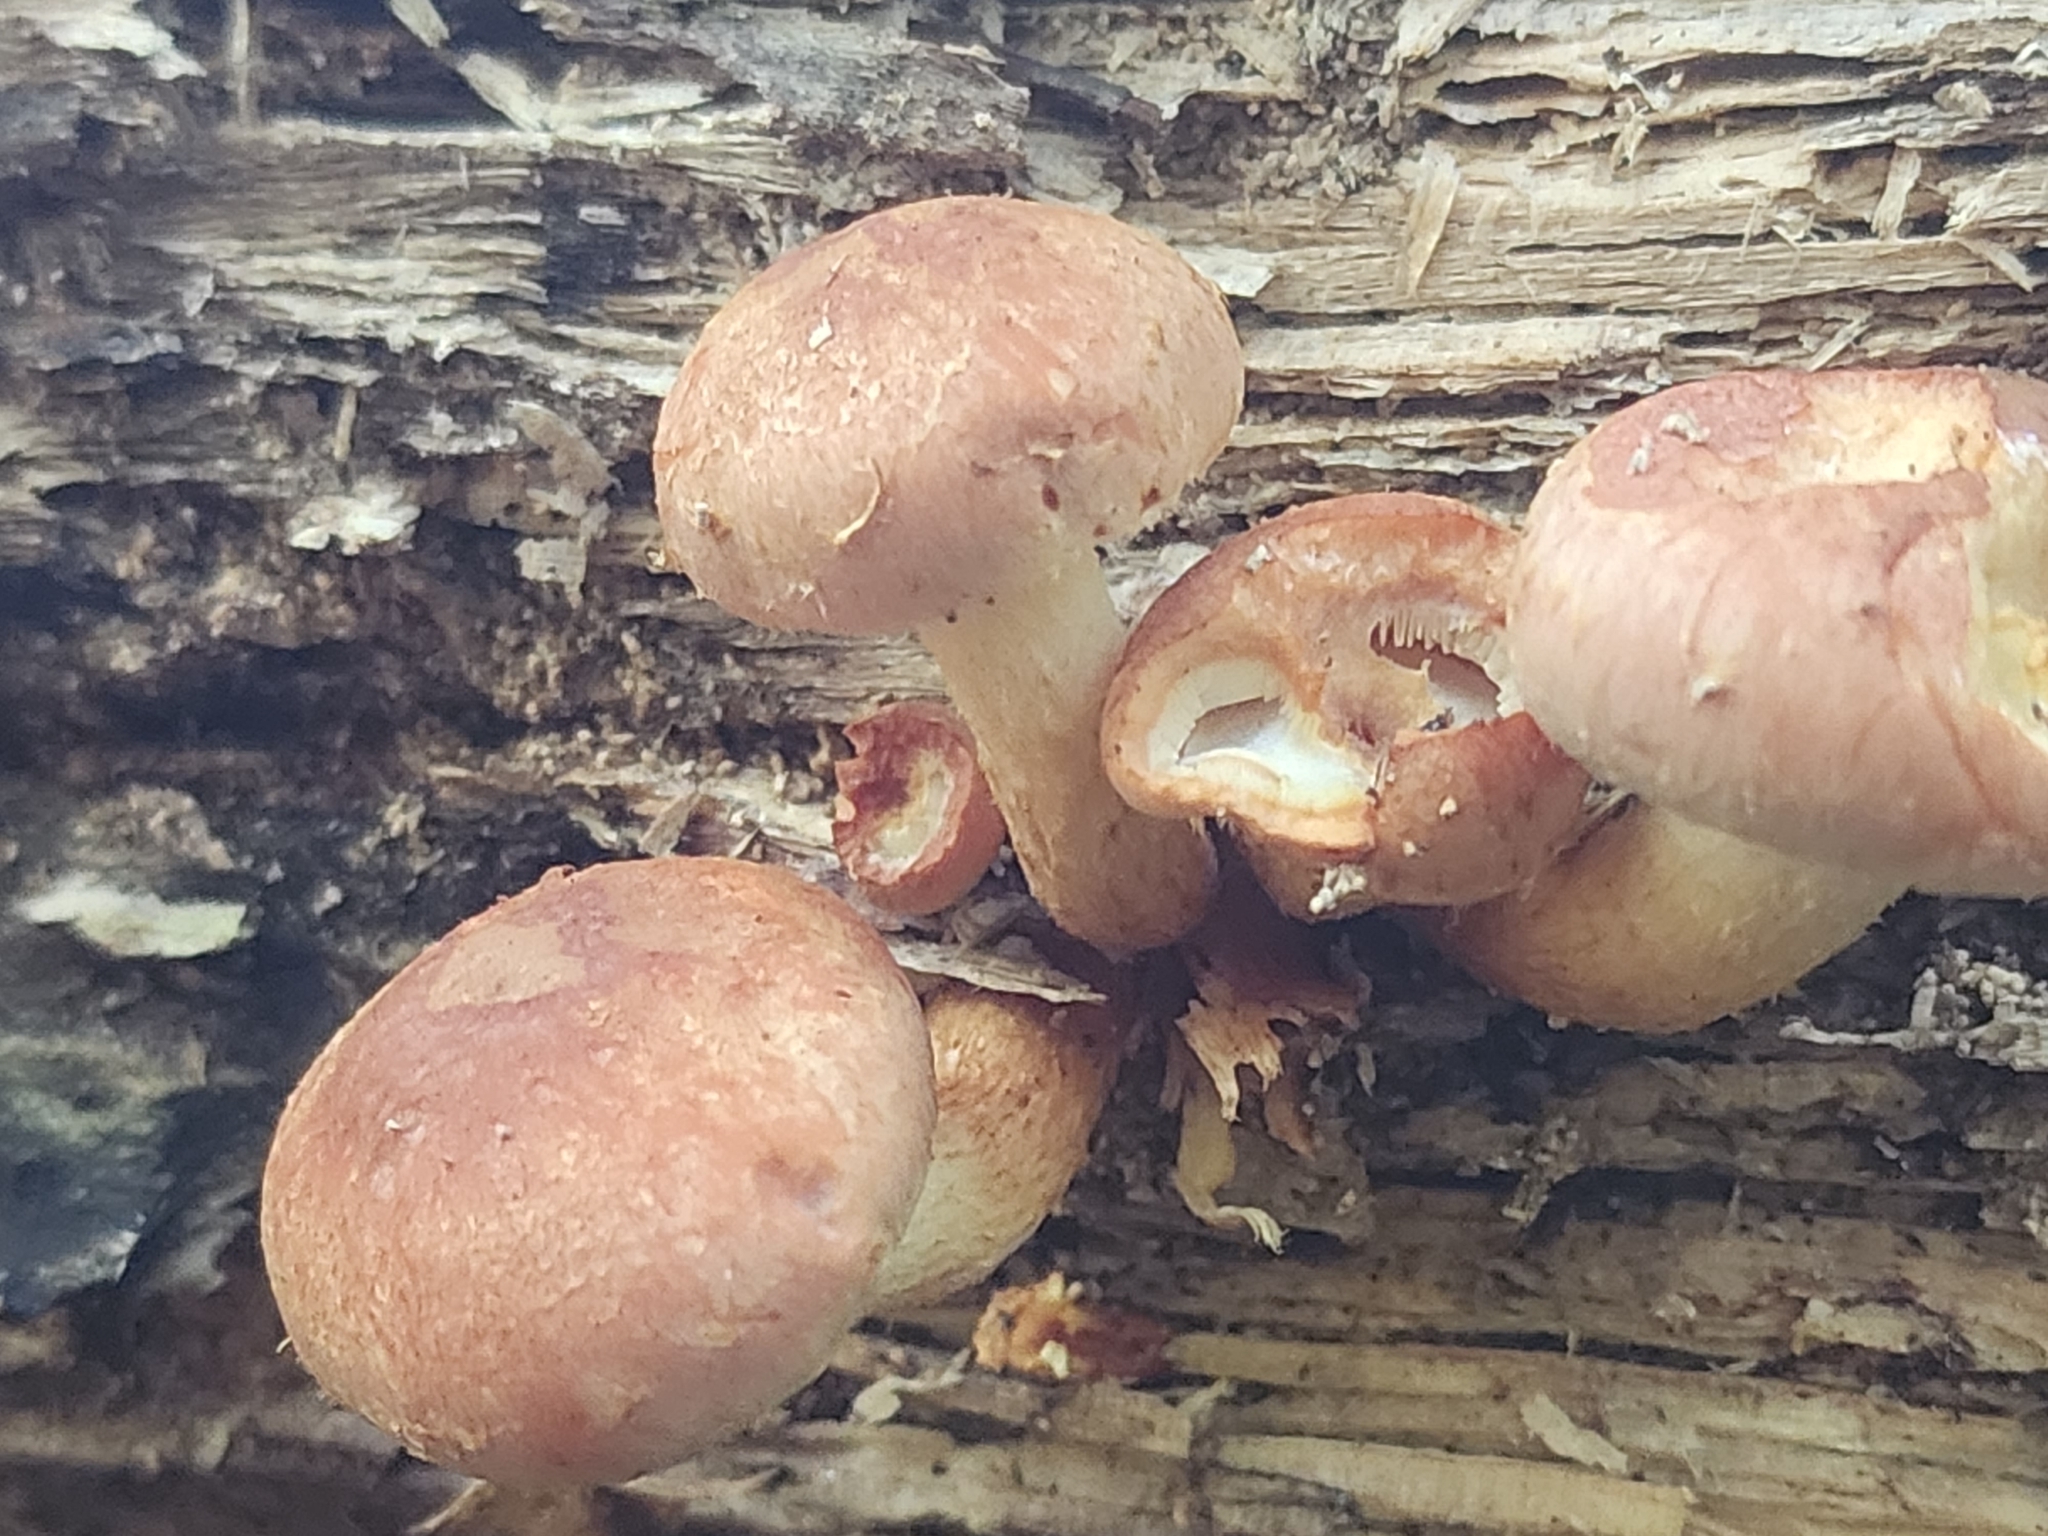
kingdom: Fungi
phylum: Basidiomycota
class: Agaricomycetes
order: Agaricales
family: Strophariaceae
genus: Hypholoma
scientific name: Hypholoma lateritium
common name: Brick caps
